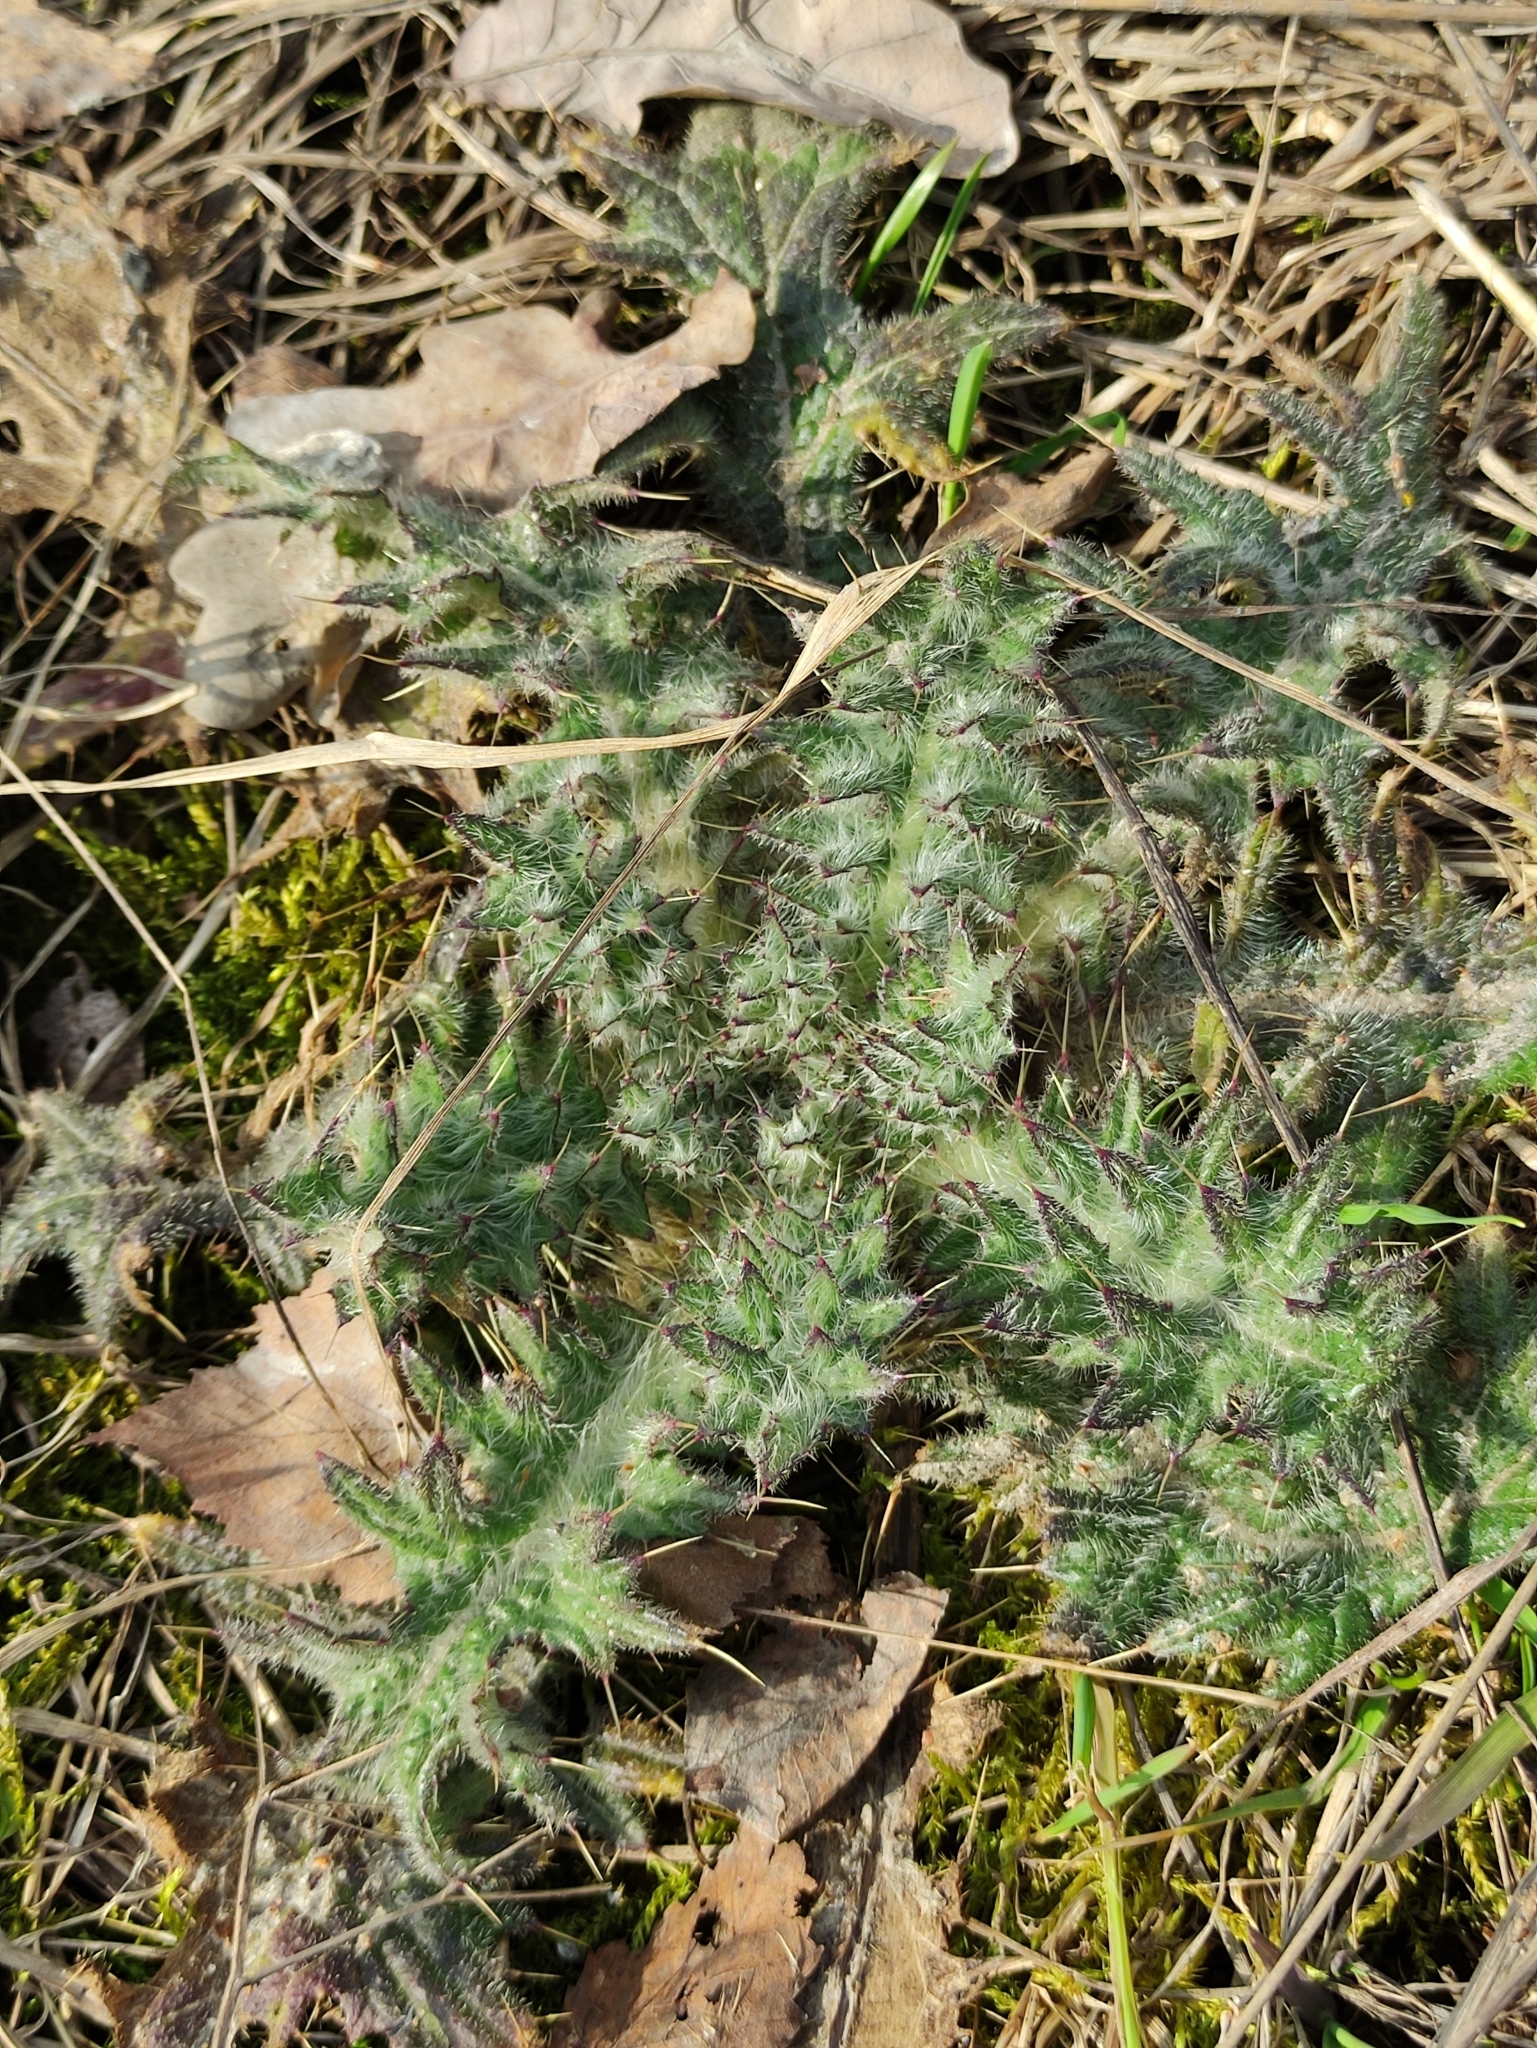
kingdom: Plantae
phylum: Tracheophyta
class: Magnoliopsida
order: Asterales
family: Asteraceae
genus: Cirsium
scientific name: Cirsium vulgare
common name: Bull thistle
